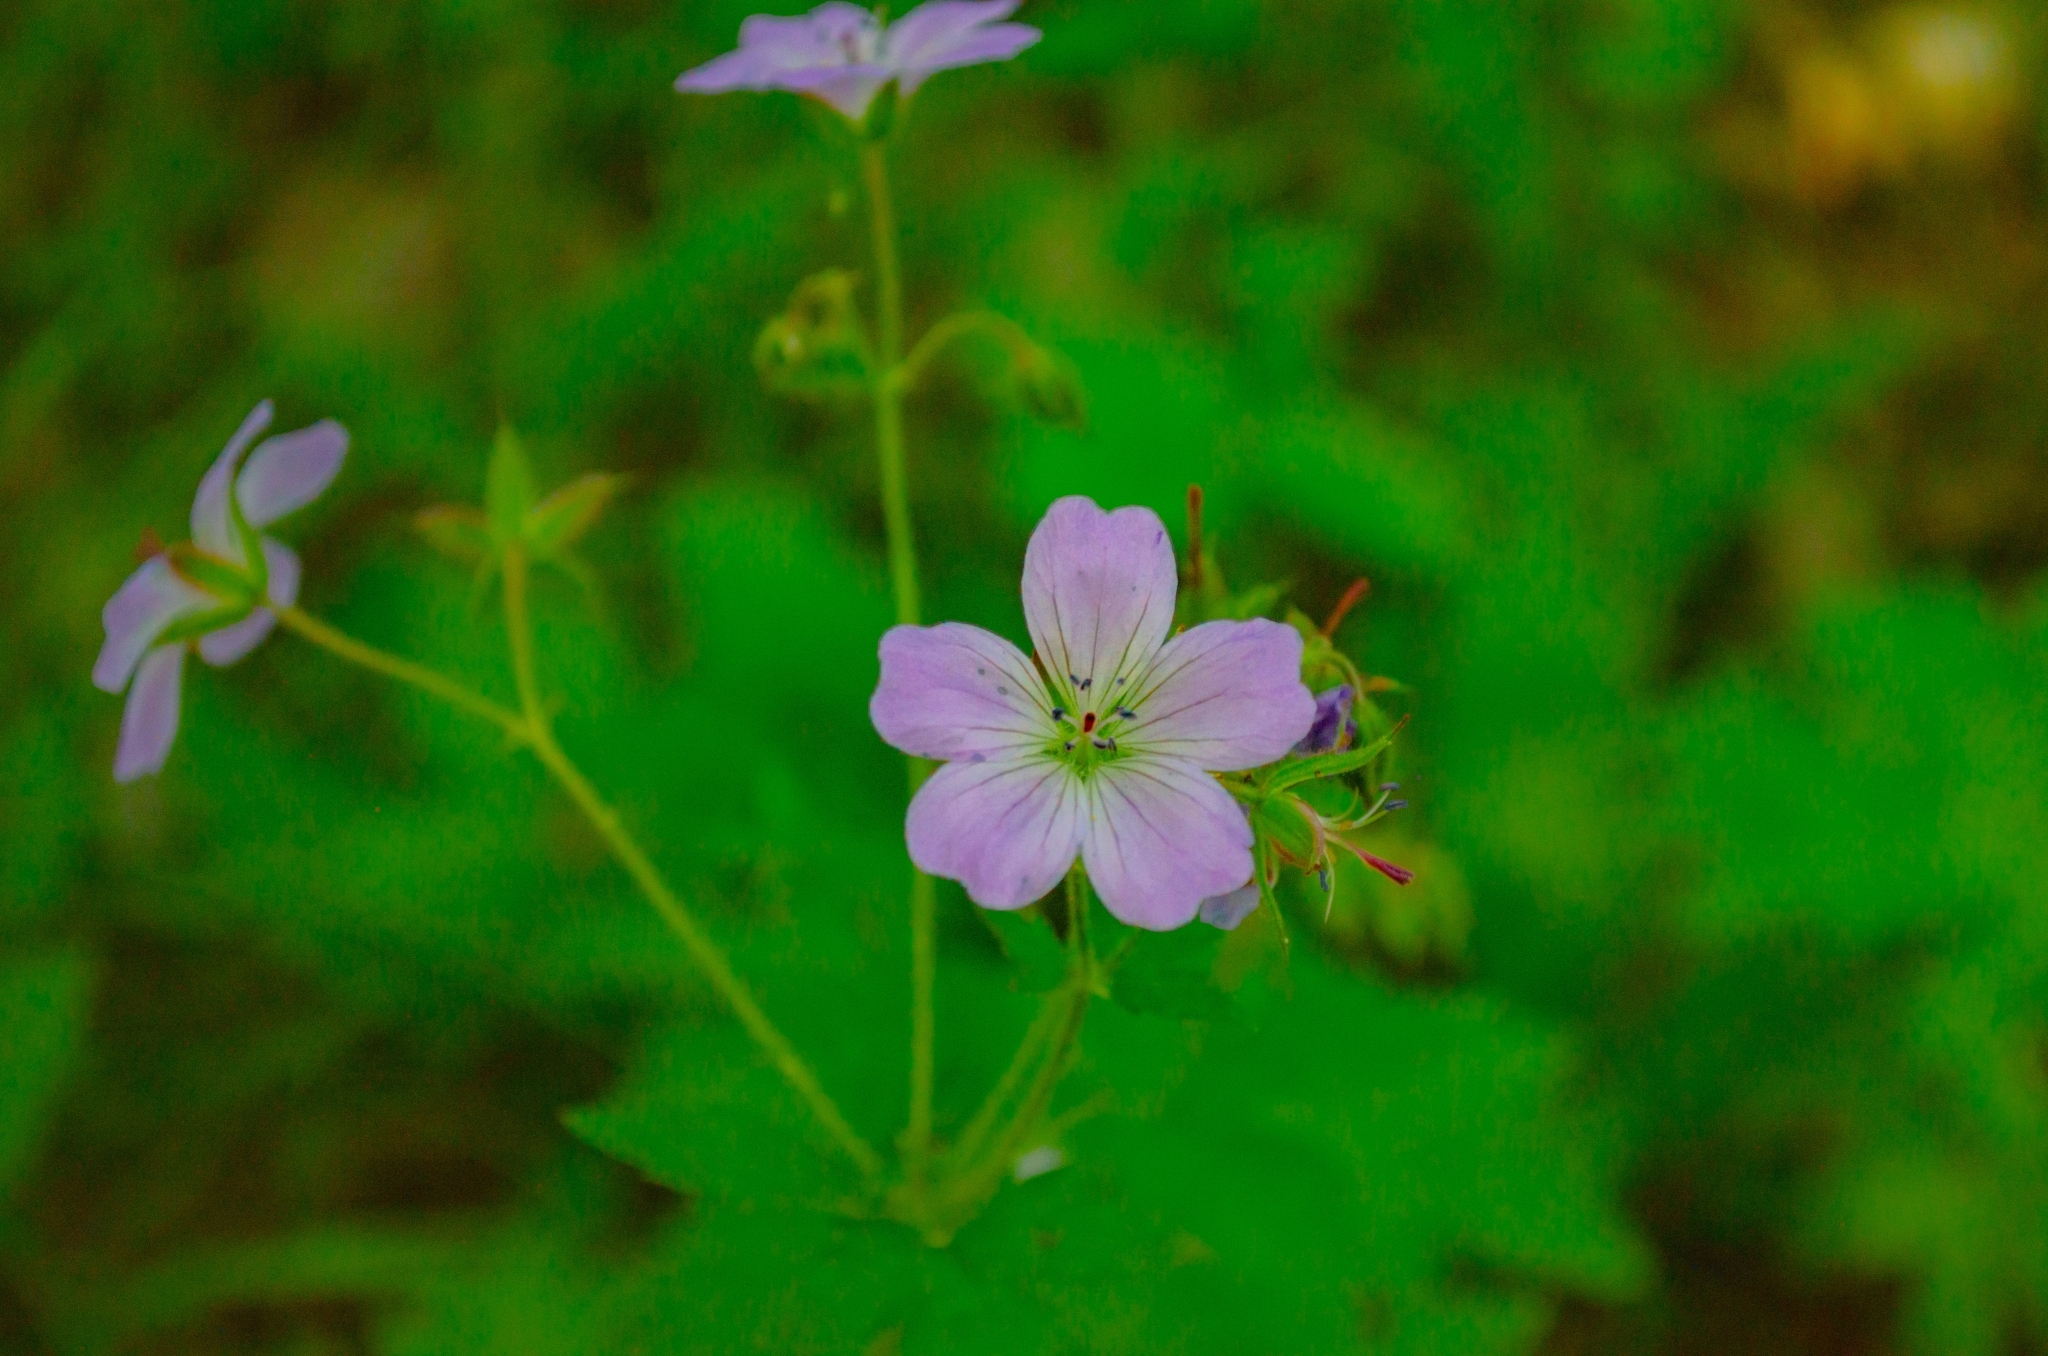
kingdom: Plantae
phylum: Tracheophyta
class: Magnoliopsida
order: Geraniales
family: Geraniaceae
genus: Geranium
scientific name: Geranium sylvaticum
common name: Wood crane's-bill
